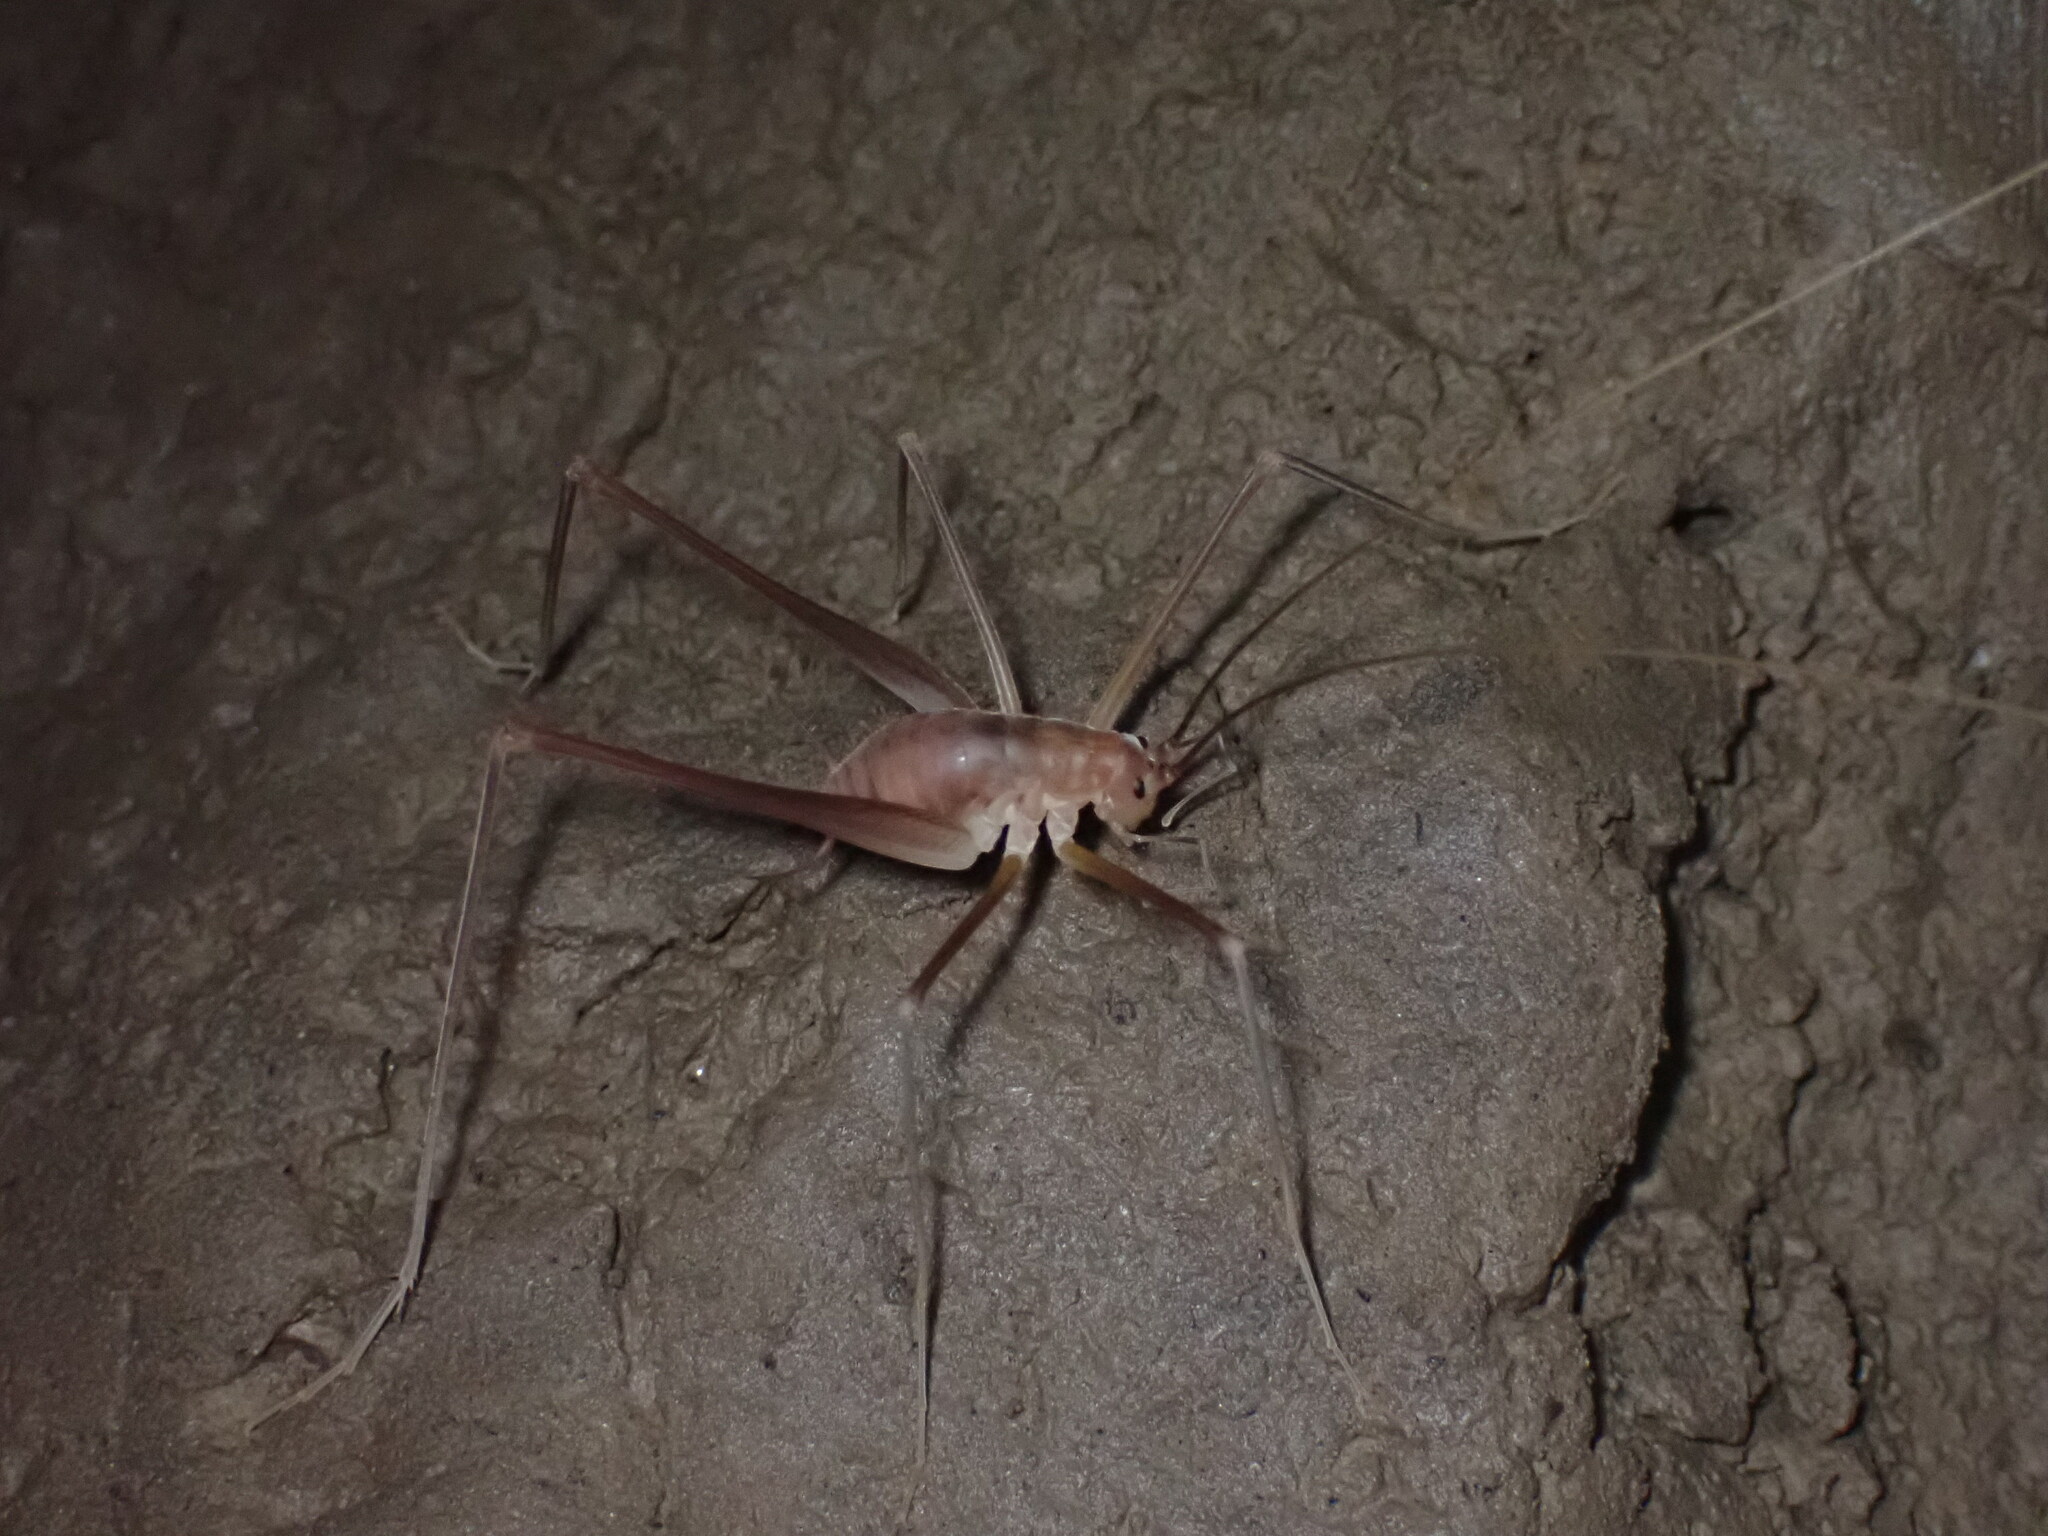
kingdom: Animalia
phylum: Arthropoda
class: Insecta
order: Orthoptera
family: Rhaphidophoridae
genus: Hadenoecus
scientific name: Hadenoecus jonesi
